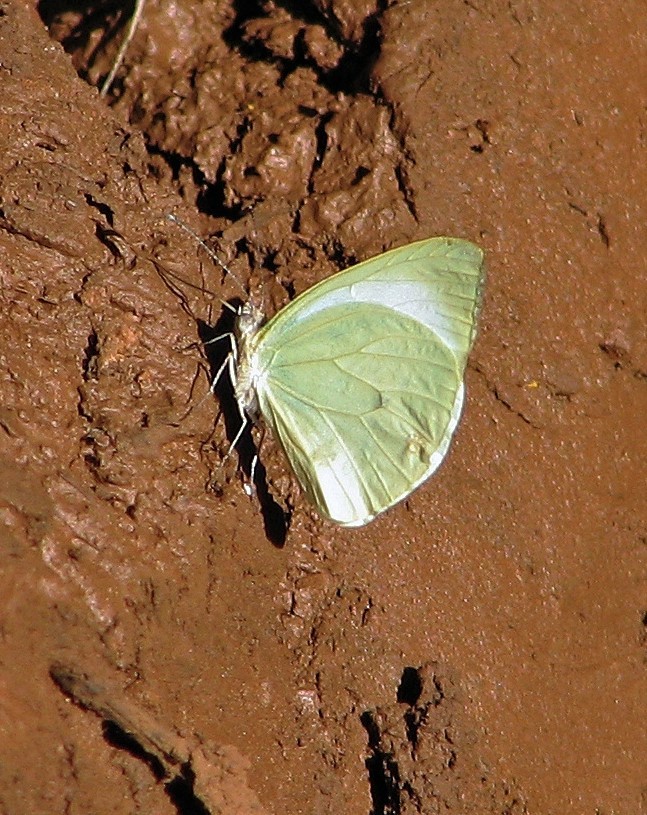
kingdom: Animalia
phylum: Arthropoda
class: Insecta
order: Lepidoptera
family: Pieridae
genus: Pseudopieris
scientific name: Pseudopieris nehemia
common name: Clean mimic-white
